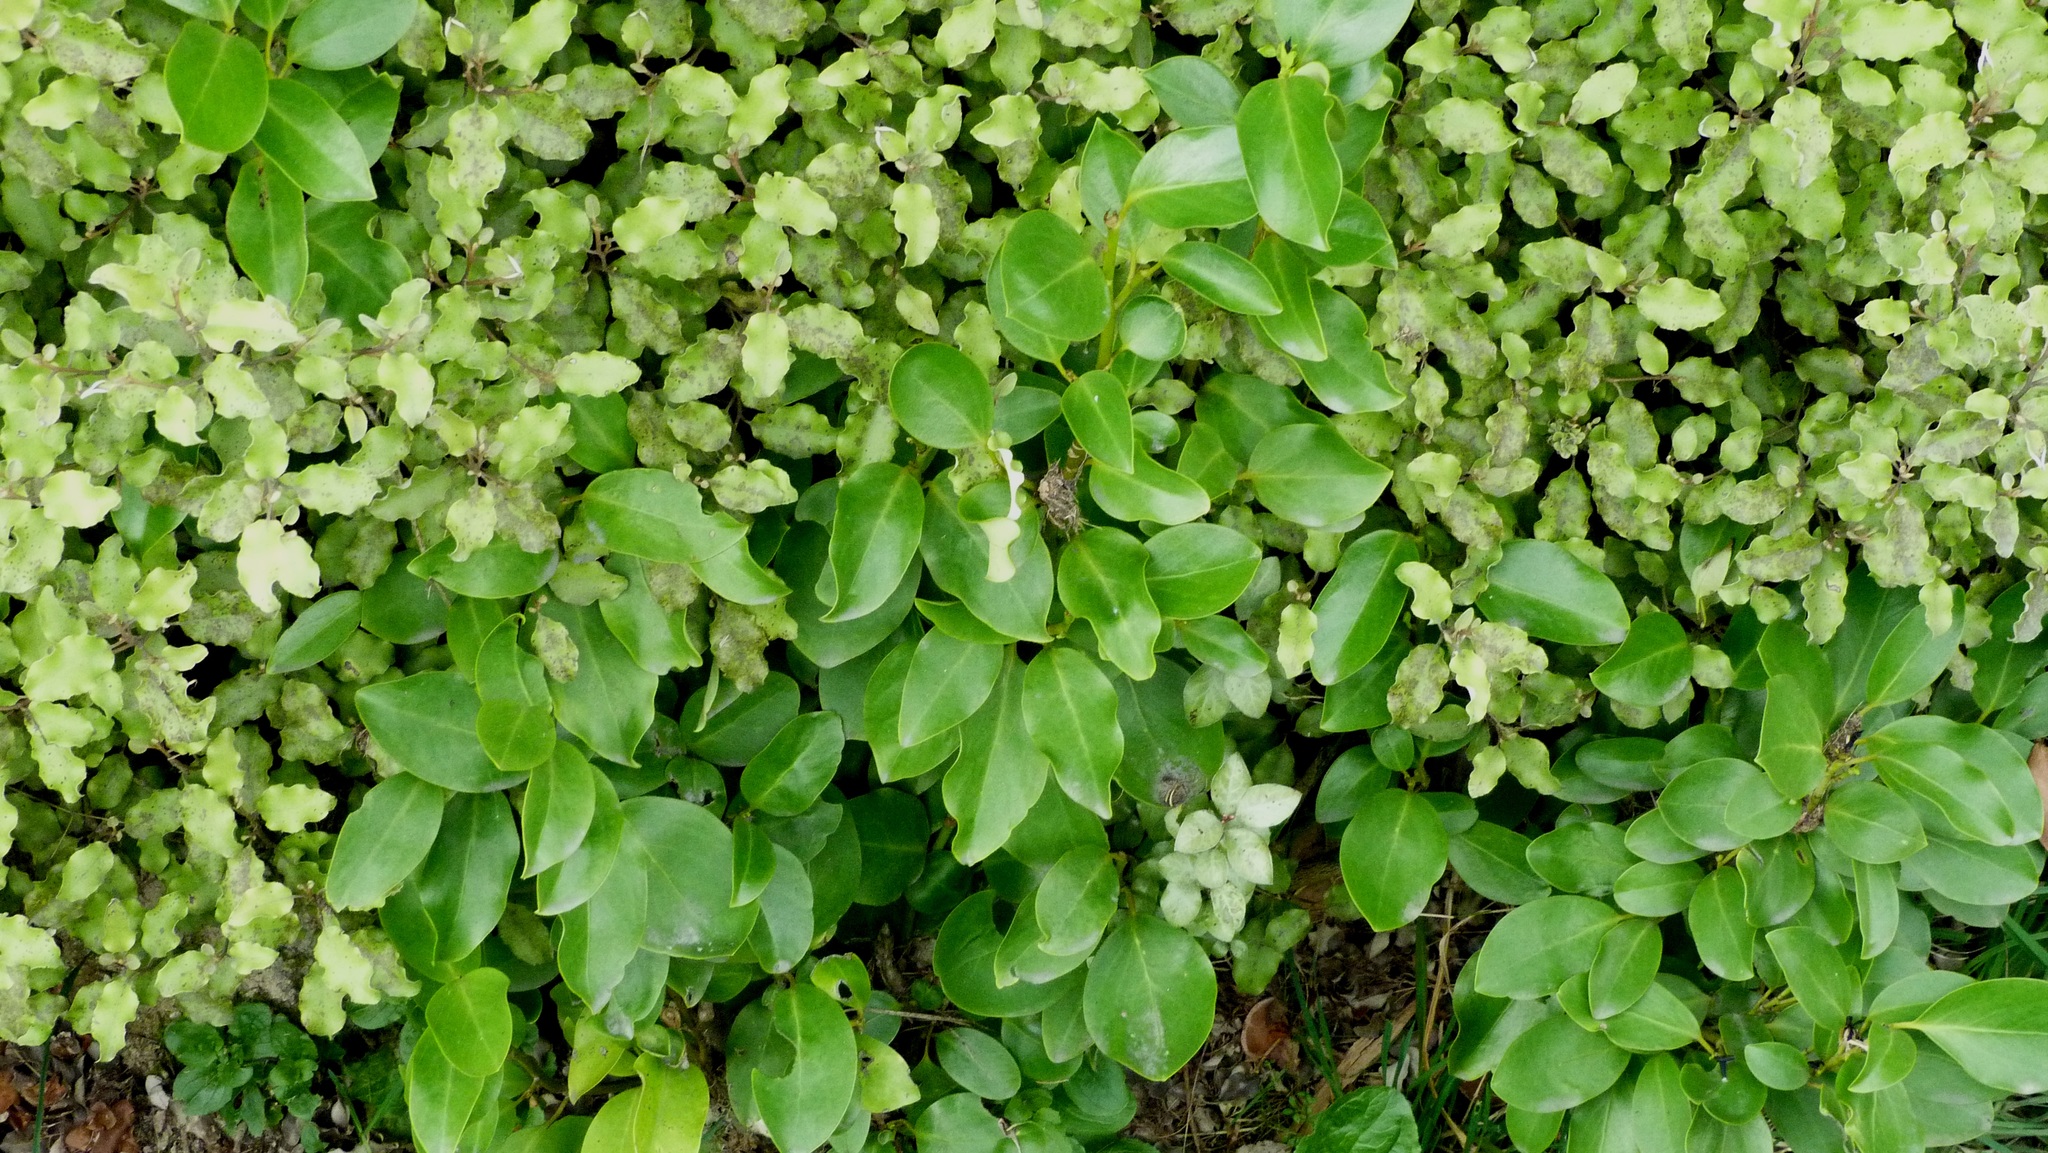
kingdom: Plantae
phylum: Tracheophyta
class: Magnoliopsida
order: Apiales
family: Griseliniaceae
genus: Griselinia
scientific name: Griselinia littoralis
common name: New zealand broadleaf
